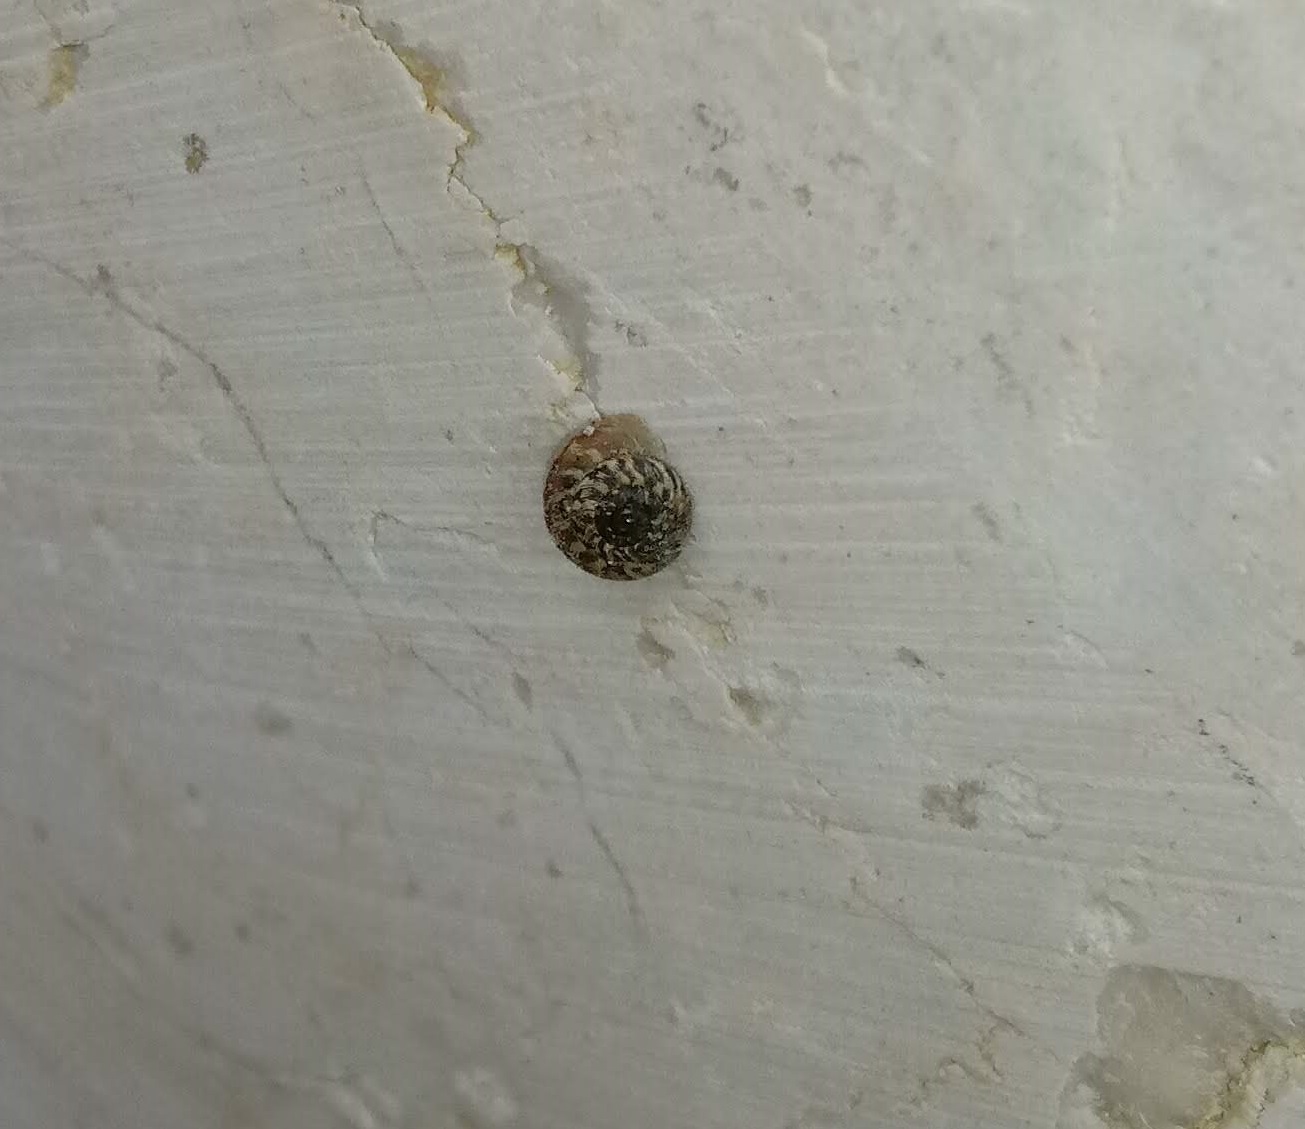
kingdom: Animalia
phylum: Mollusca
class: Gastropoda
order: Stylommatophora
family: Geomitridae
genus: Xerotricha
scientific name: Xerotricha conspurcata
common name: Snail
